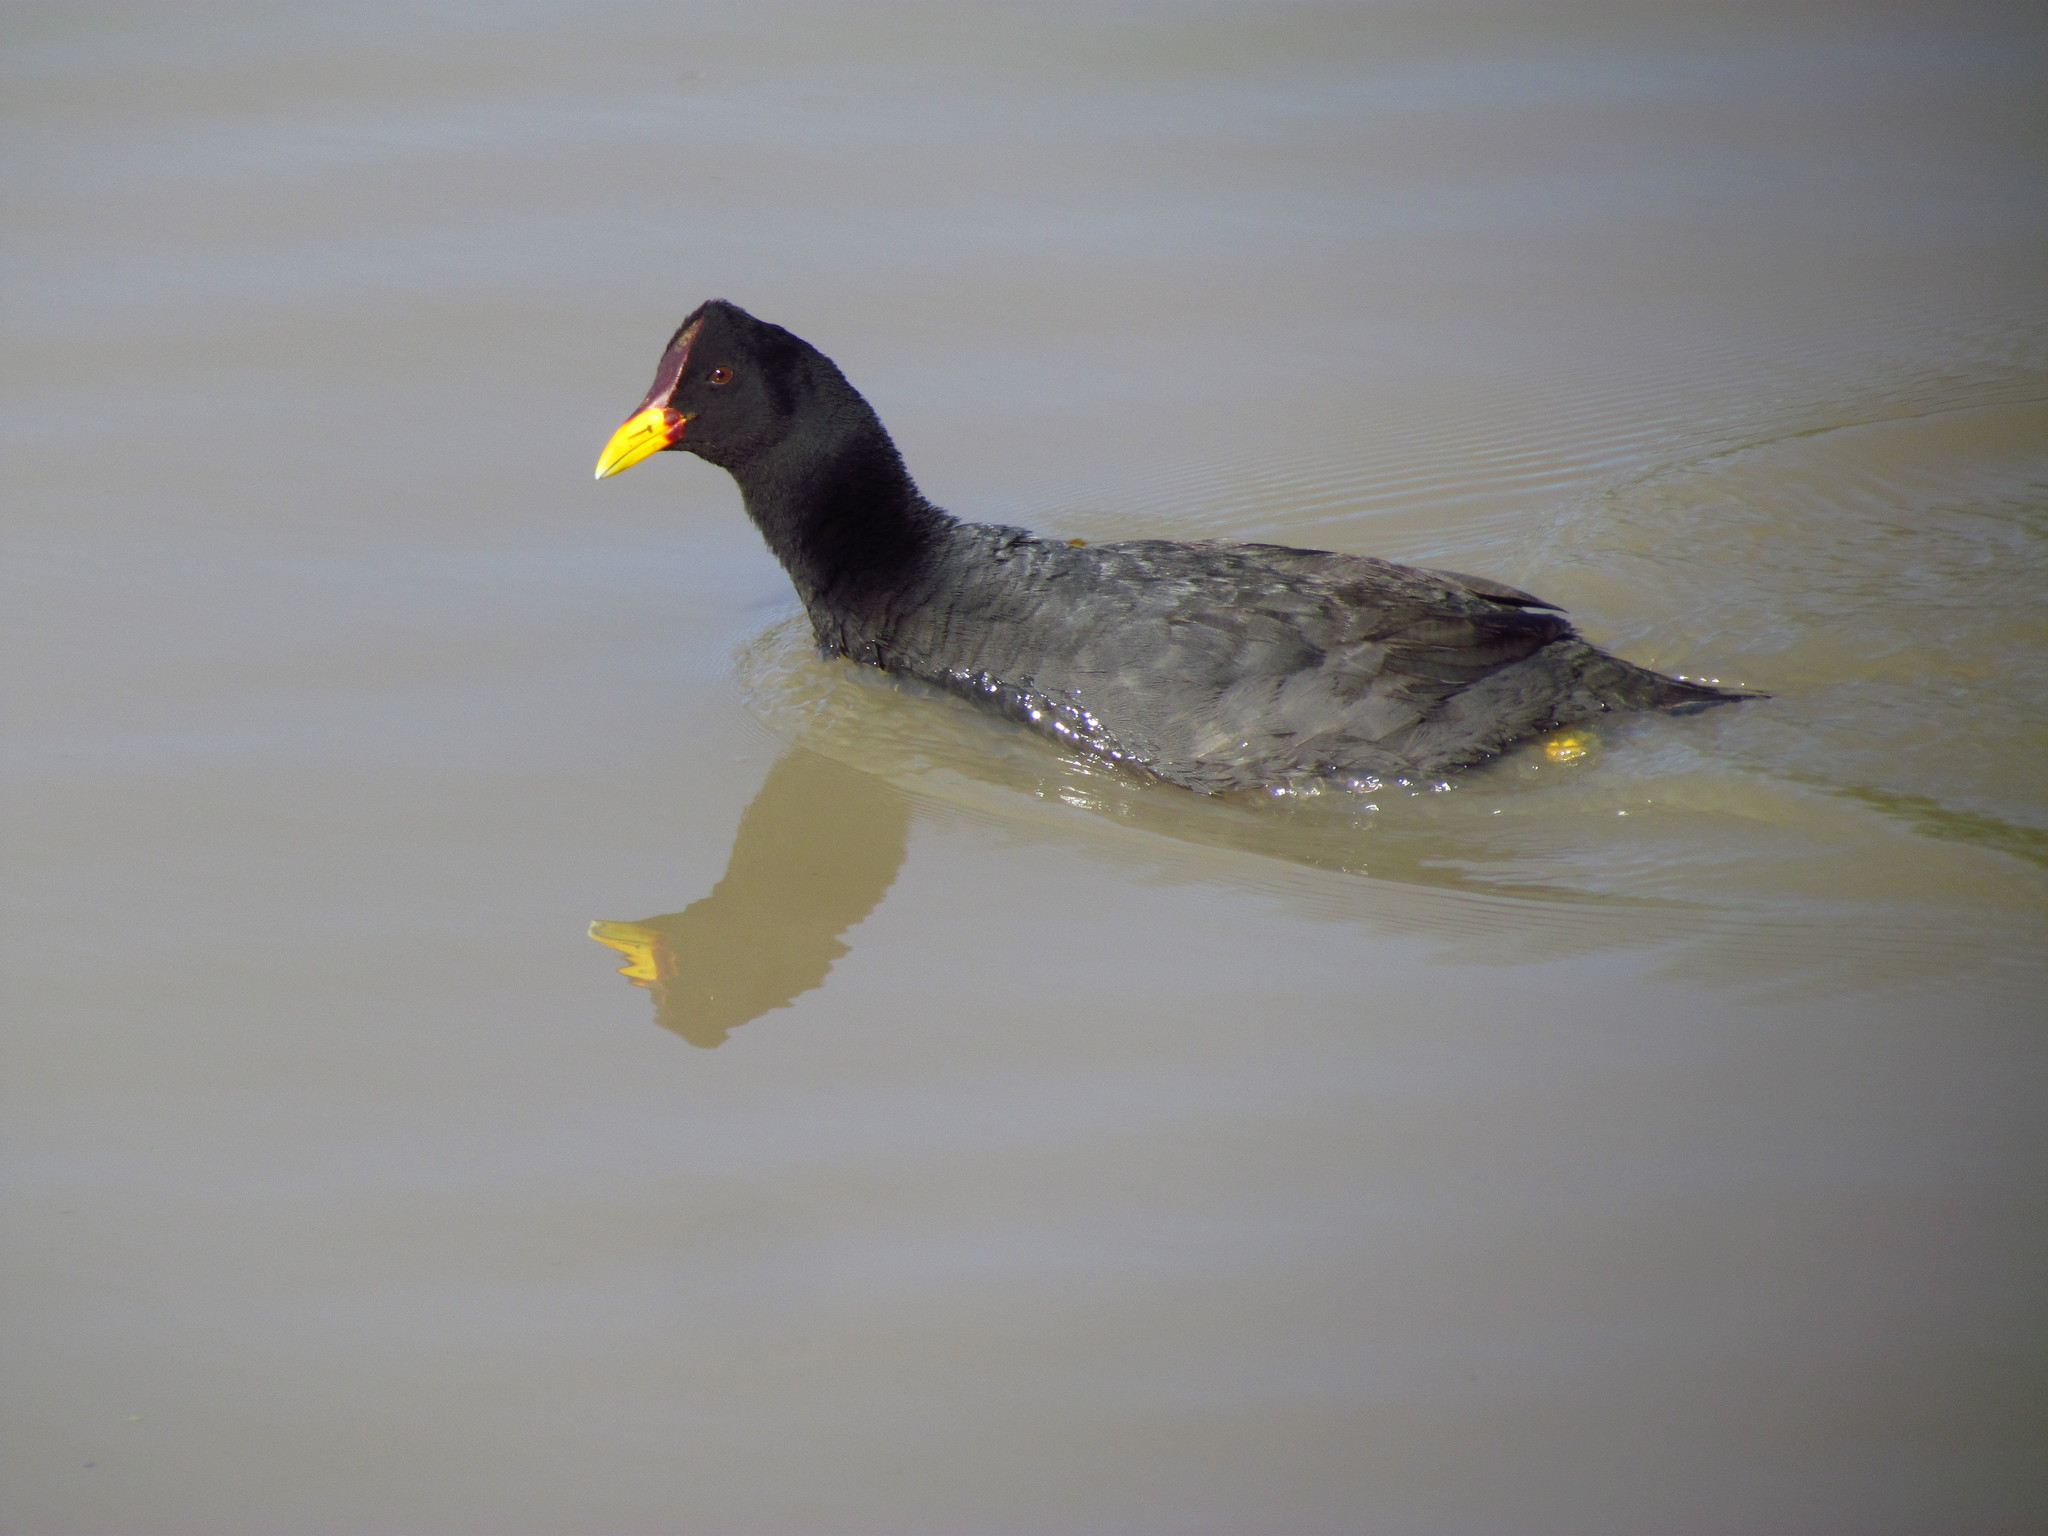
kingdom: Animalia
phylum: Chordata
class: Aves
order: Gruiformes
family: Rallidae
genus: Fulica
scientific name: Fulica rufifrons
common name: Red-fronted coot
